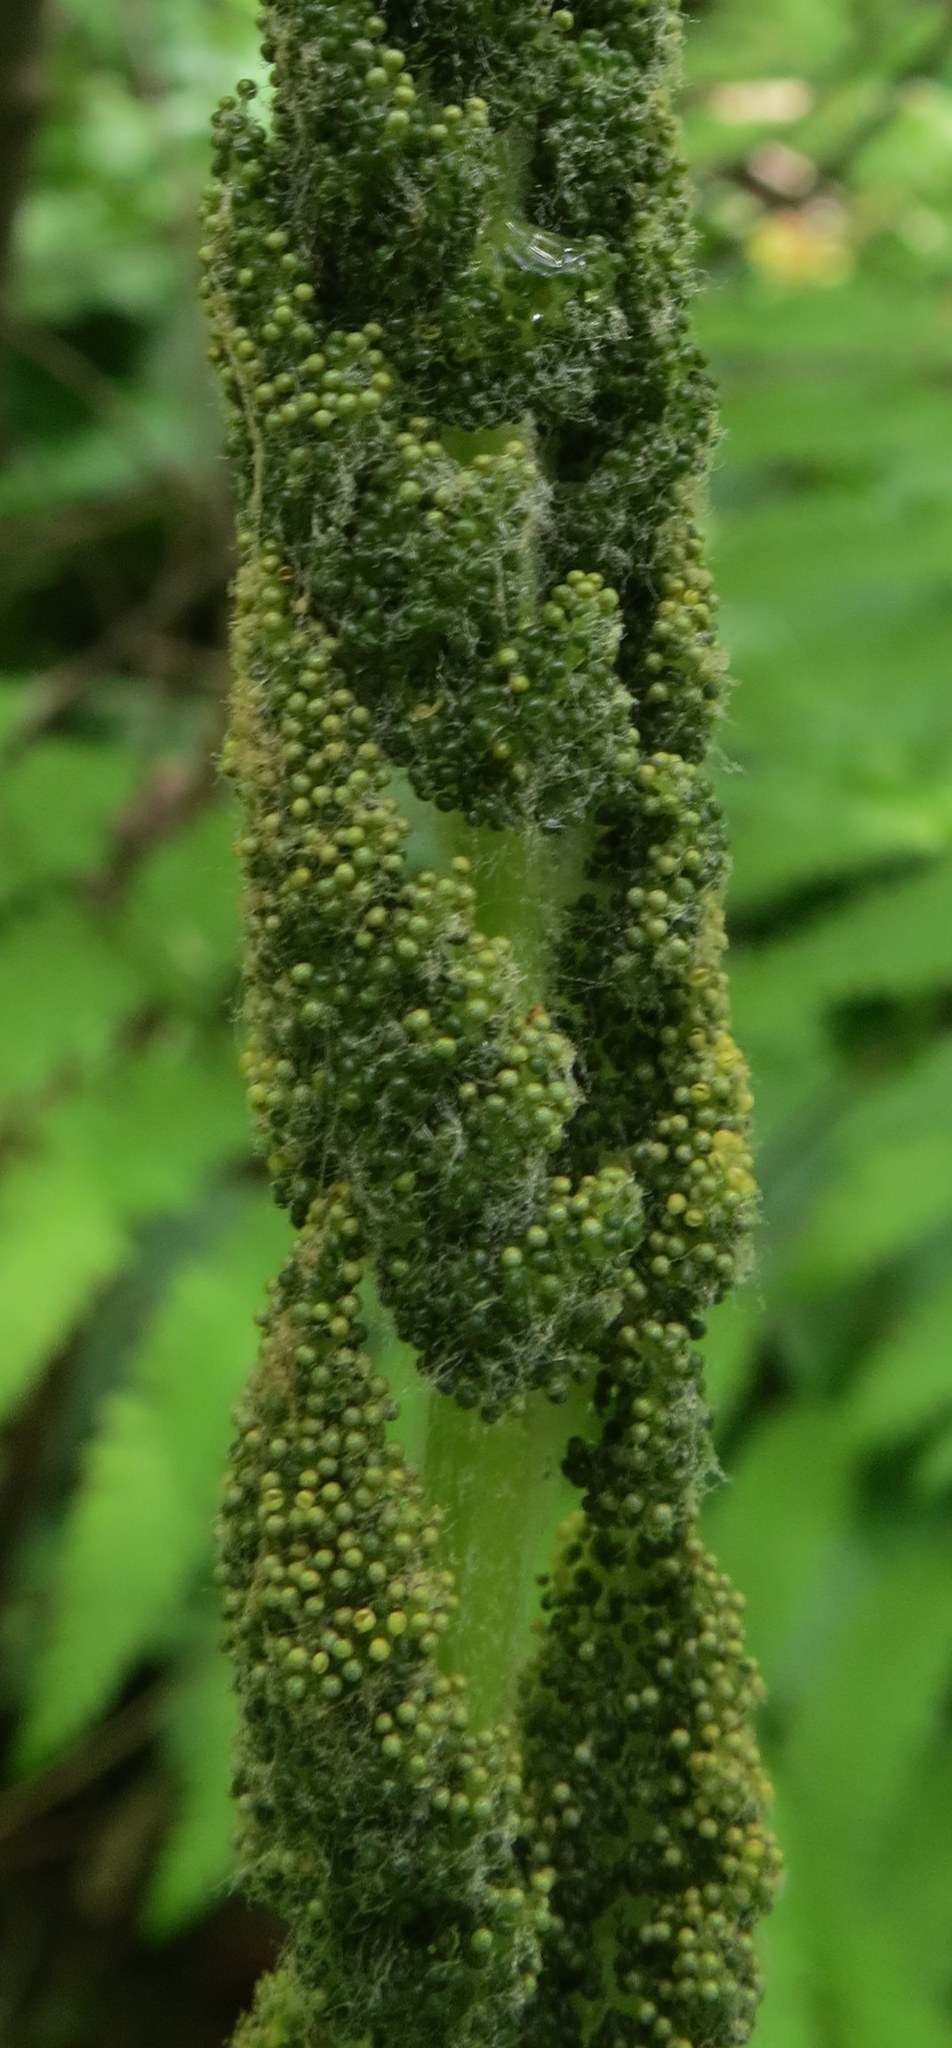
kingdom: Plantae
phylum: Tracheophyta
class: Polypodiopsida
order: Osmundales
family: Osmundaceae
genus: Osmundastrum
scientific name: Osmundastrum cinnamomeum
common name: Cinnamon fern
